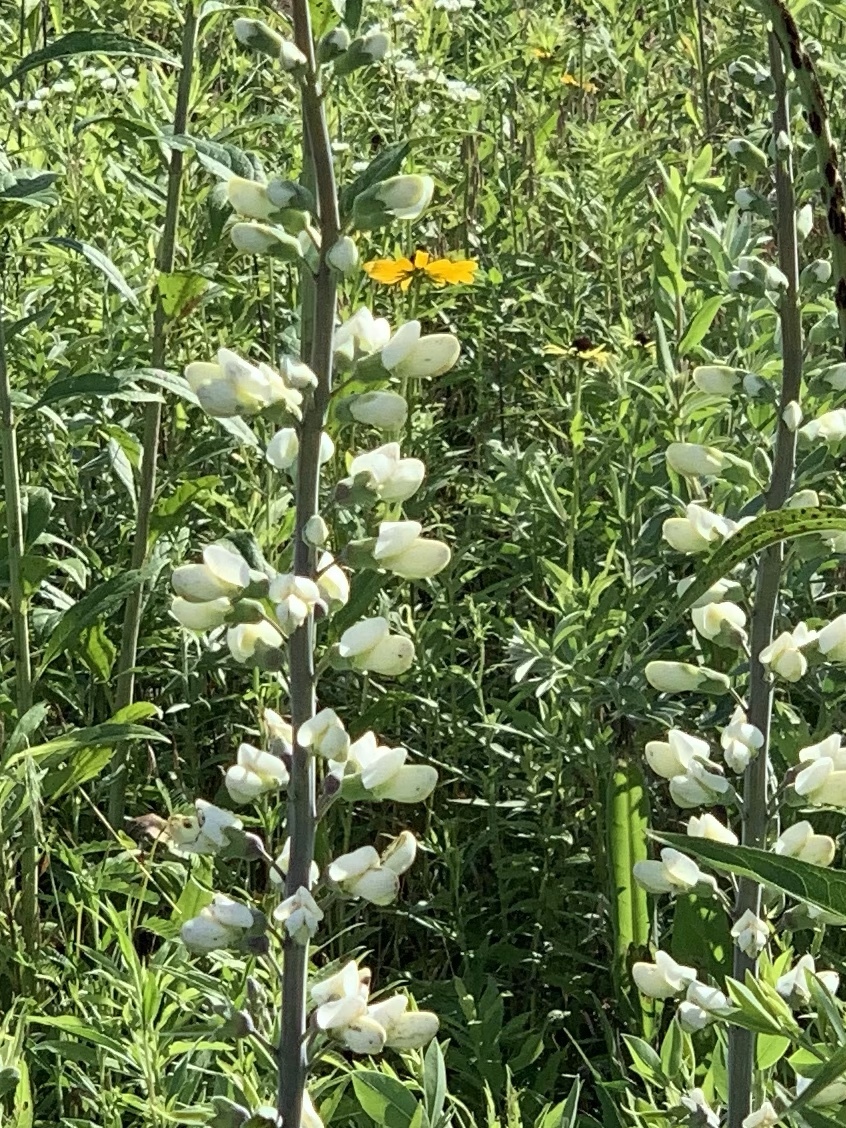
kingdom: Plantae
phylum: Tracheophyta
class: Magnoliopsida
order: Fabales
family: Fabaceae
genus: Baptisia
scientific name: Baptisia alba
